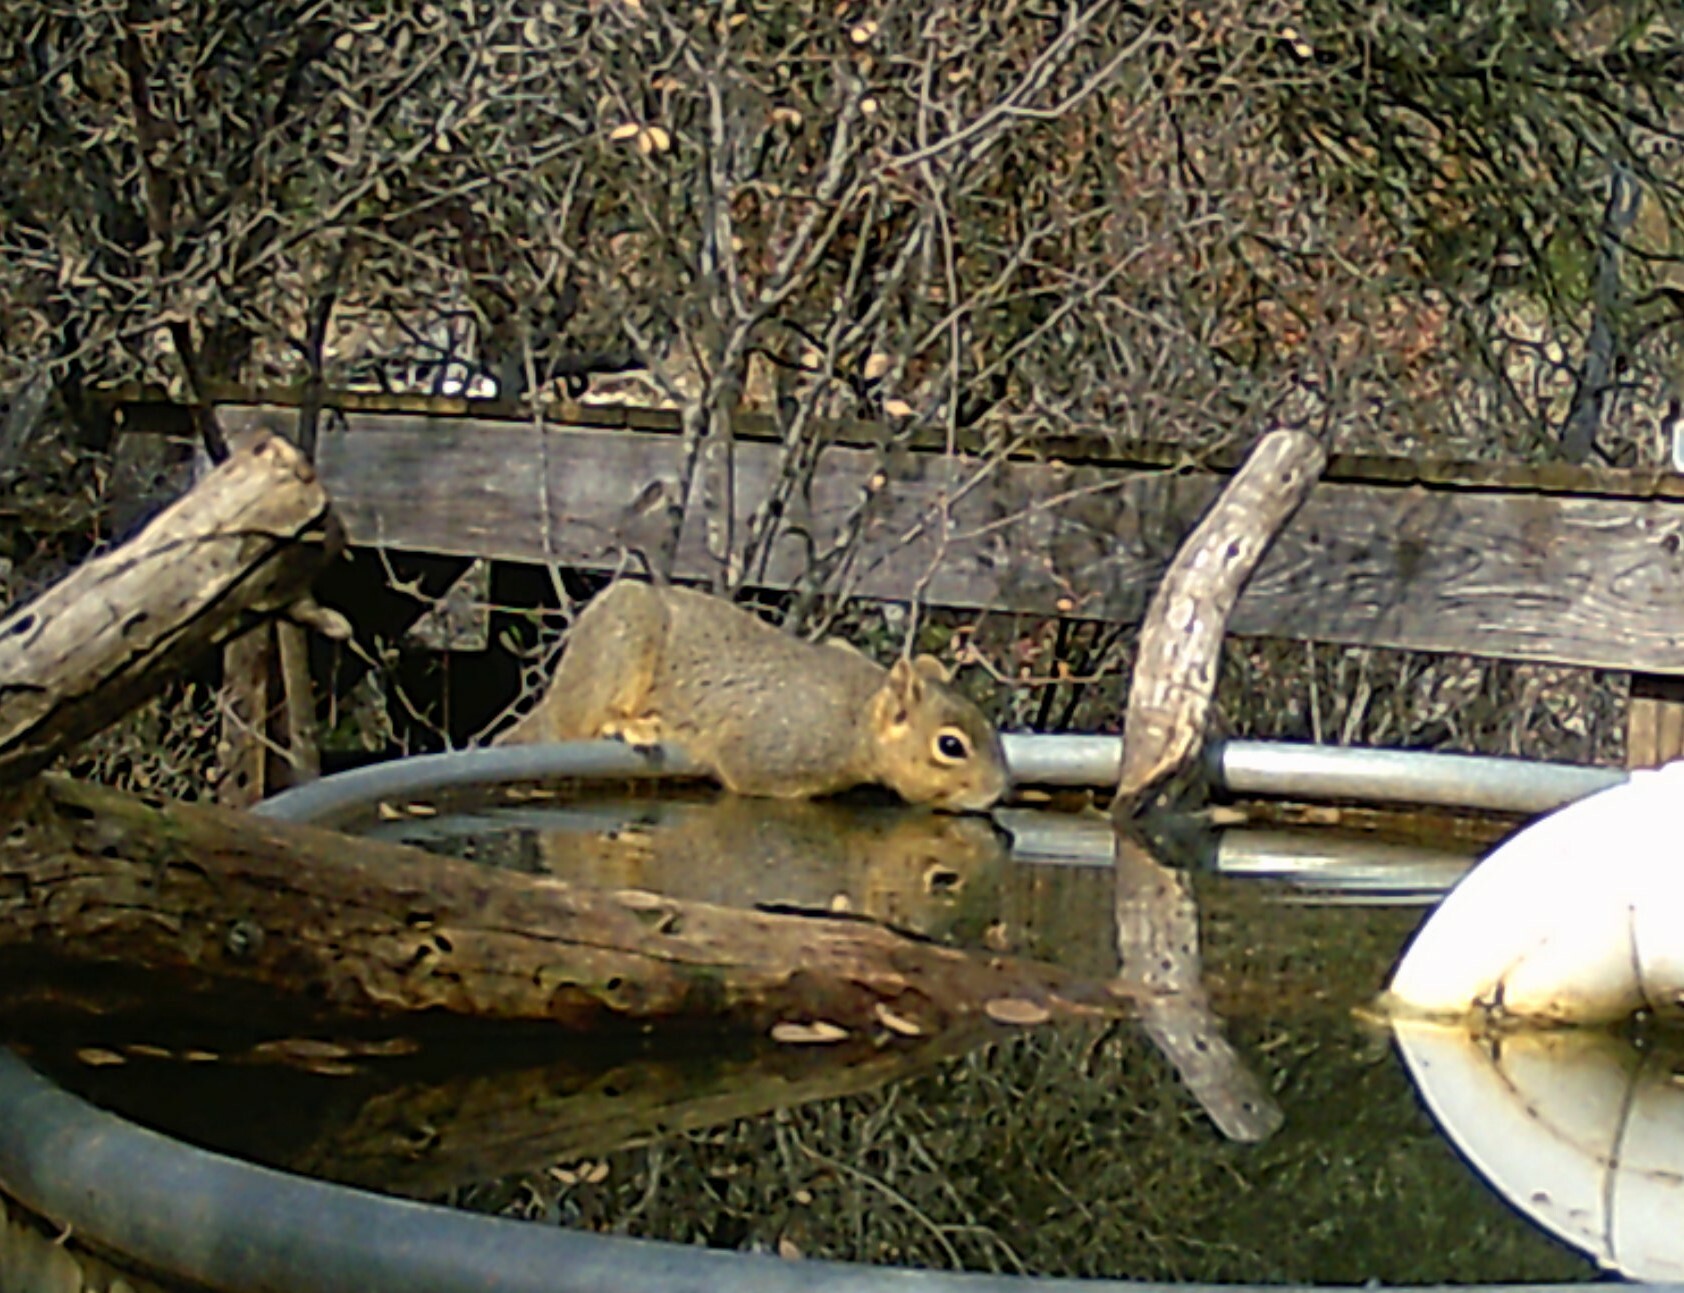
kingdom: Animalia
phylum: Chordata
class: Mammalia
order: Rodentia
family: Sciuridae
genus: Sciurus
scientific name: Sciurus niger
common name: Fox squirrel
